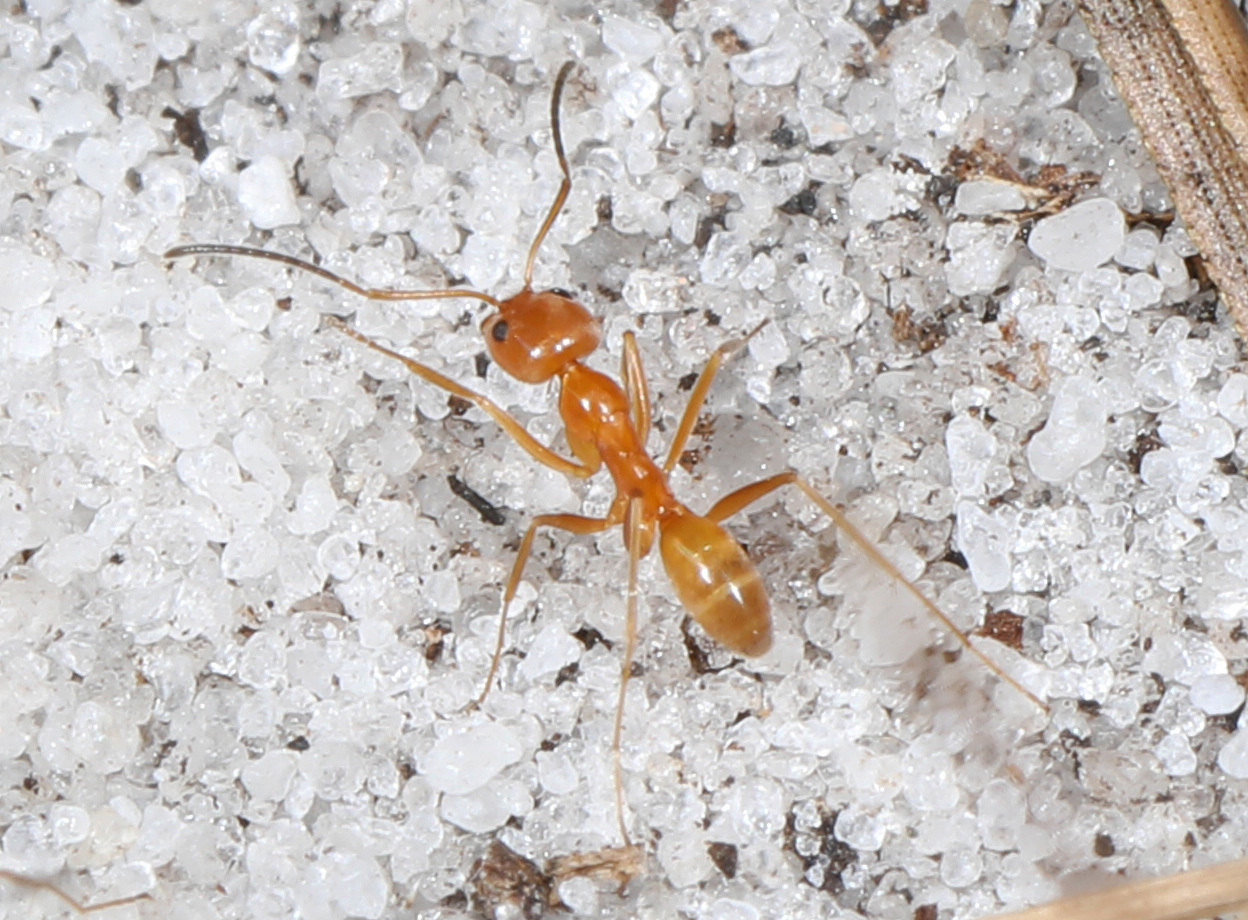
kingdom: Animalia
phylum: Arthropoda
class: Insecta
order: Hymenoptera
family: Formicidae
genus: Dorymyrmex
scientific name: Dorymyrmex bureni
